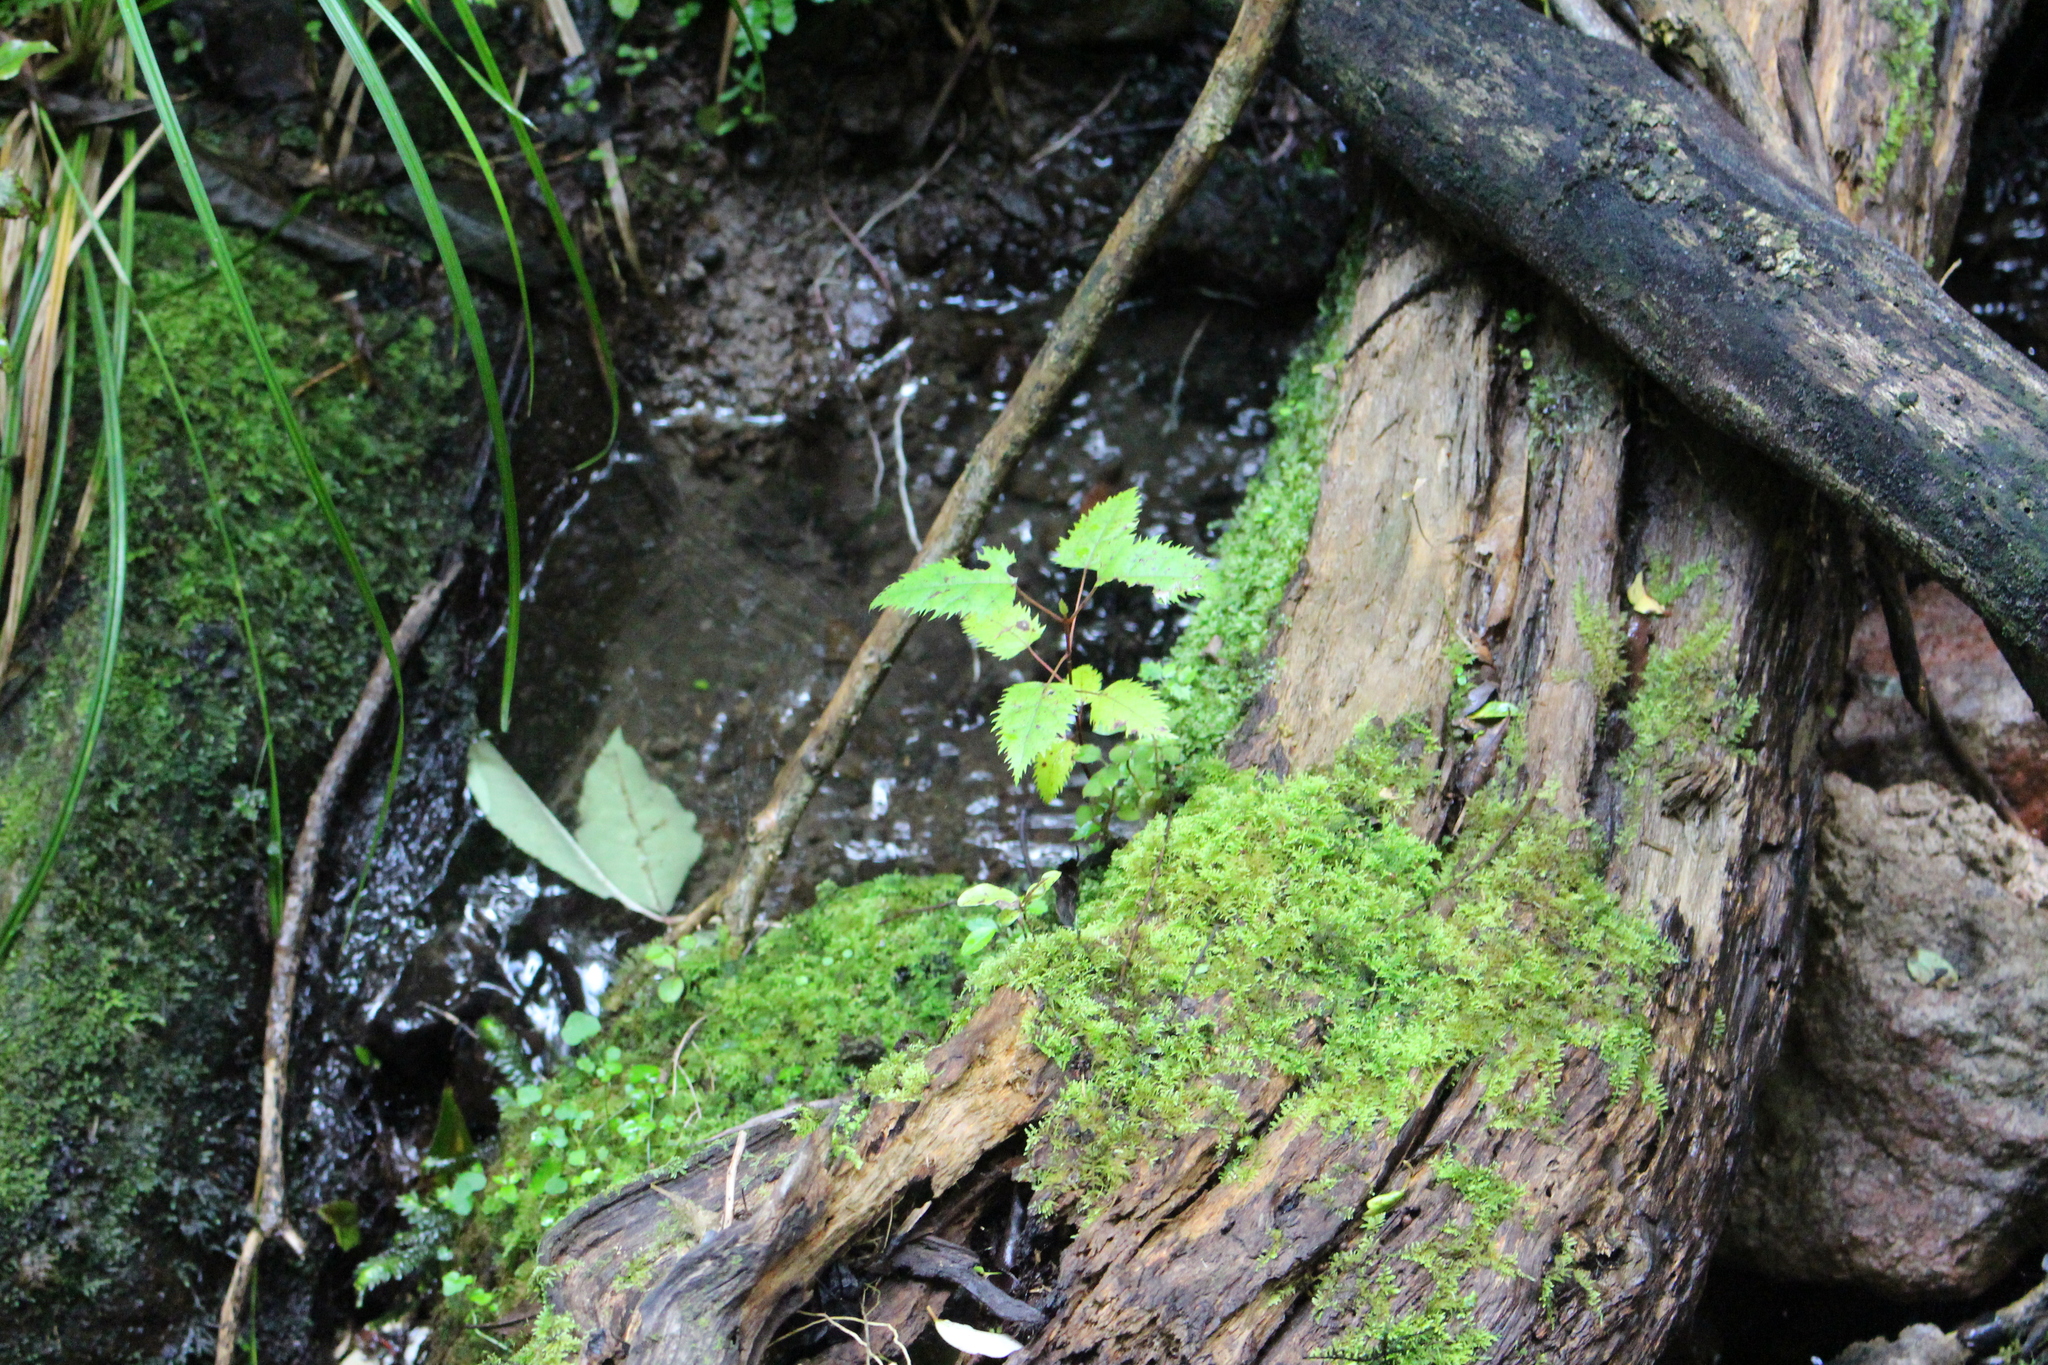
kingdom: Plantae
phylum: Tracheophyta
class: Magnoliopsida
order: Oxalidales
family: Elaeocarpaceae
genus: Aristotelia
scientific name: Aristotelia serrata
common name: New zealand wineberry
